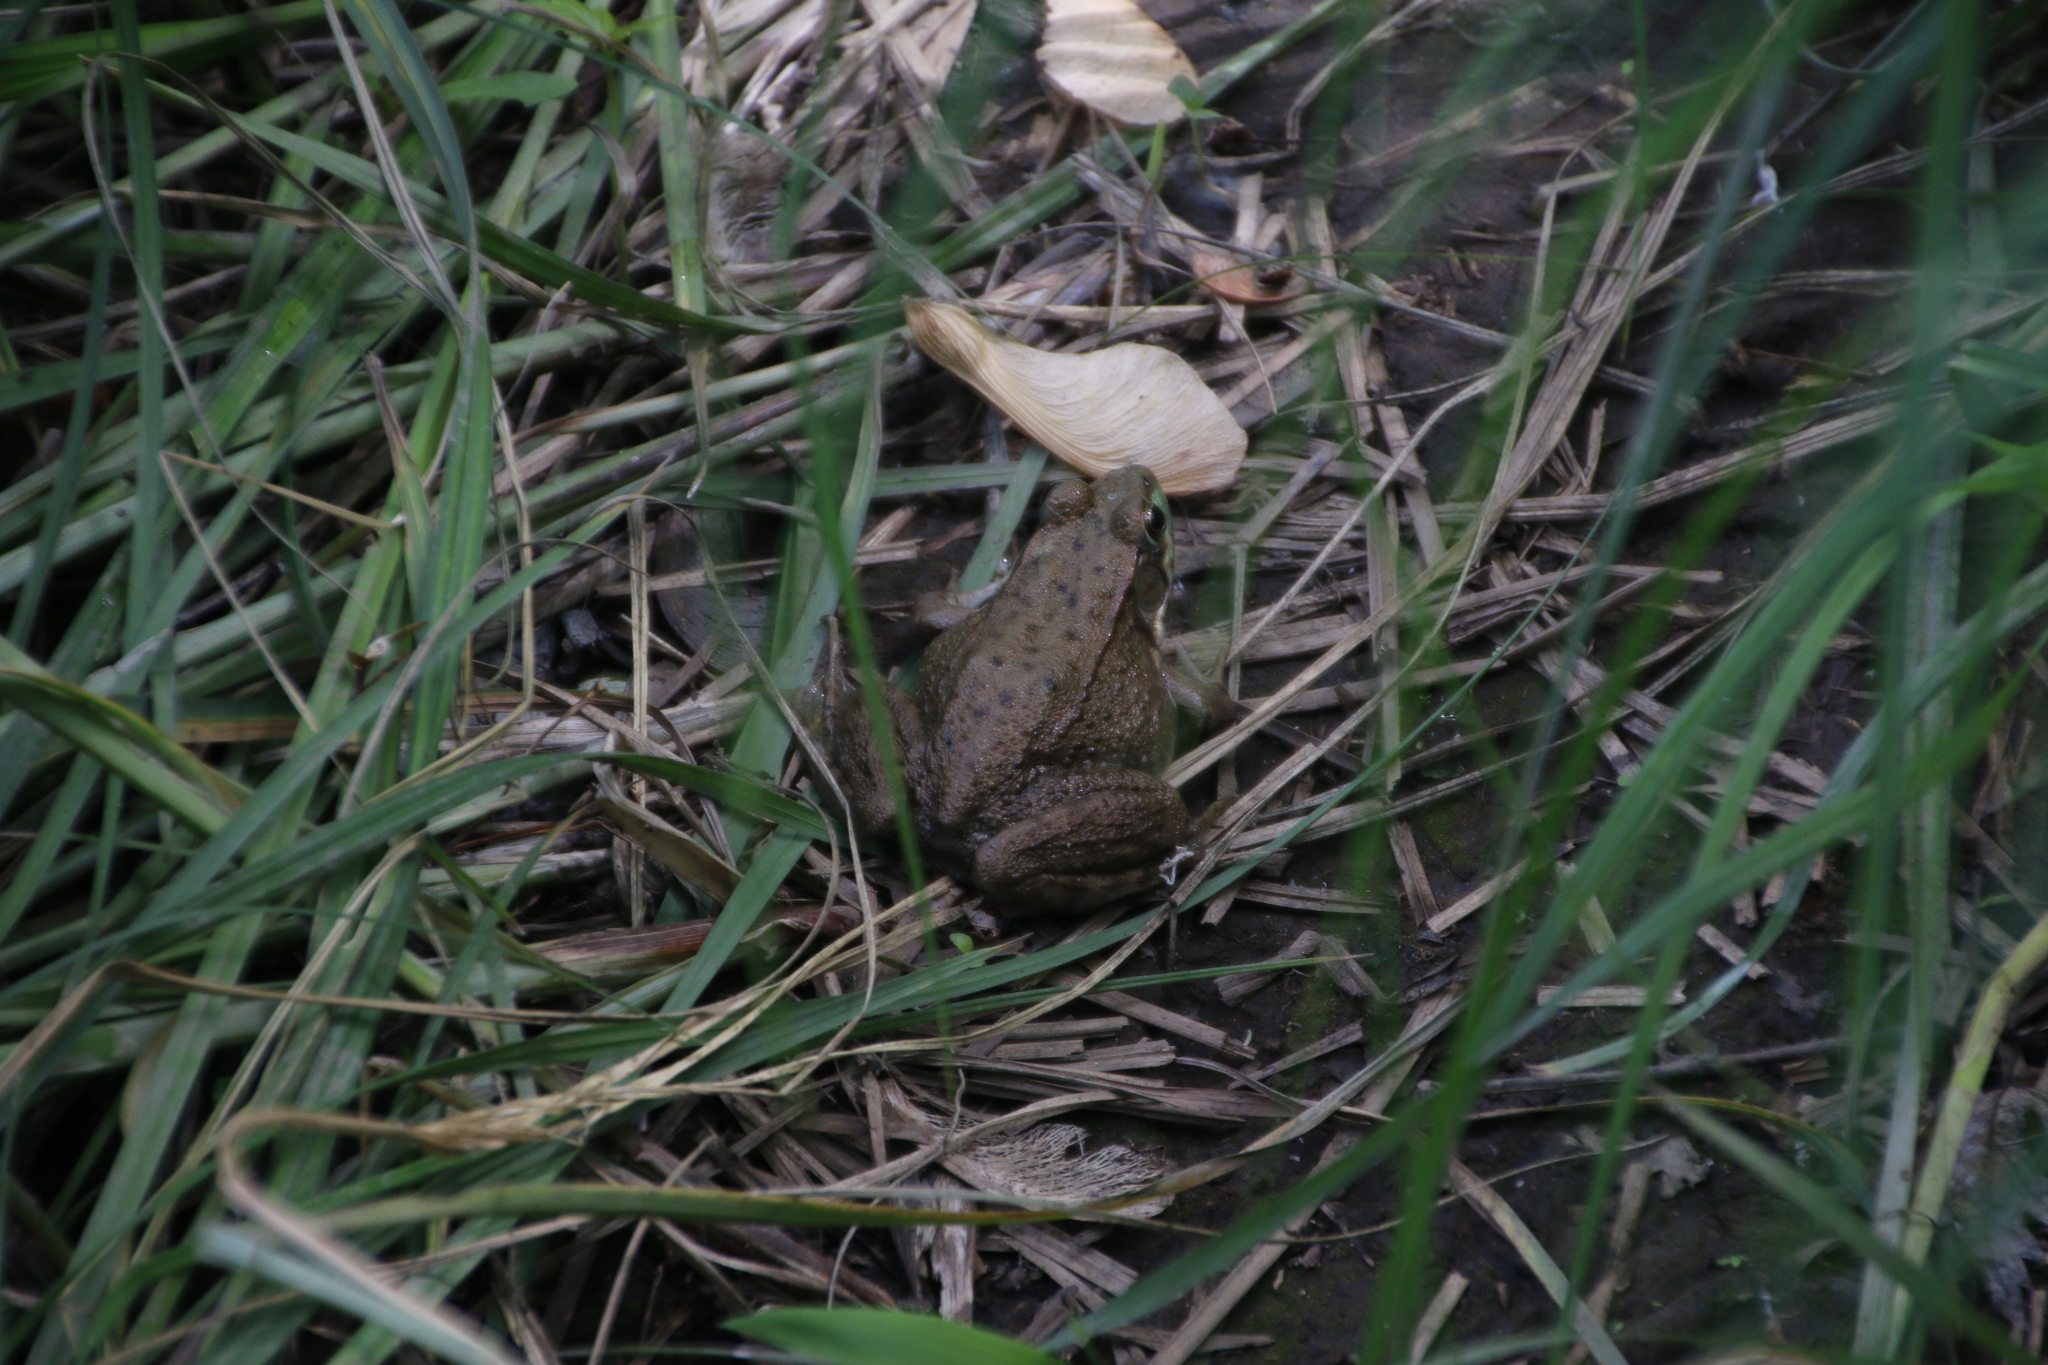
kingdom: Animalia
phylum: Chordata
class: Amphibia
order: Anura
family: Ranidae
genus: Lithobates
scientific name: Lithobates clamitans
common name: Green frog
